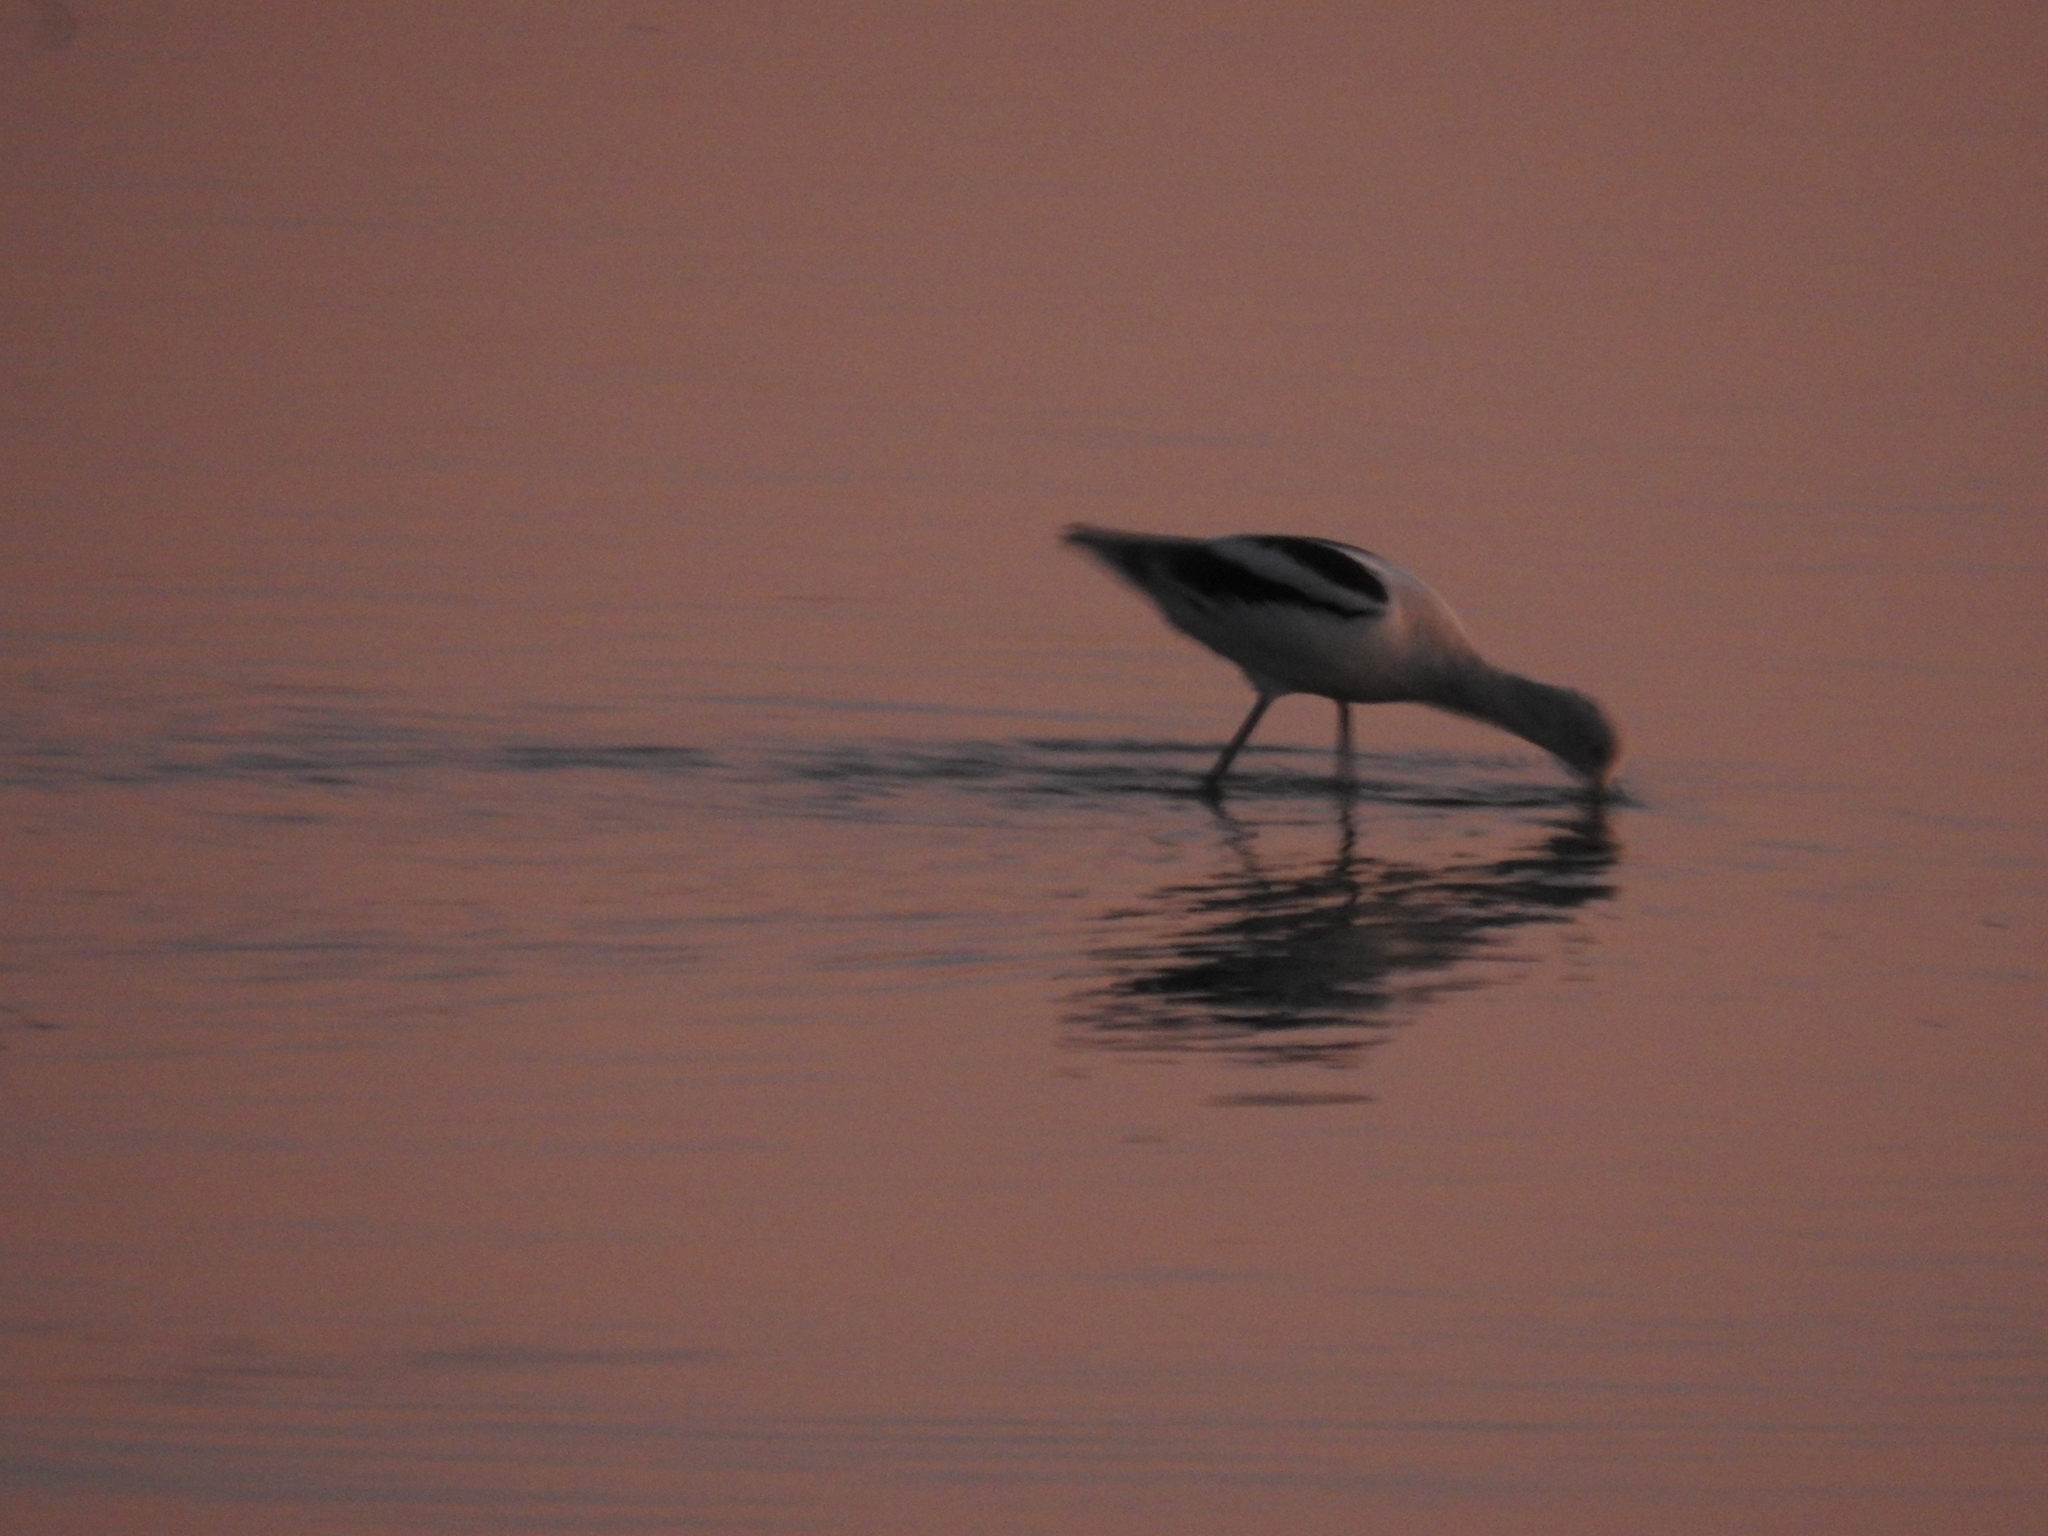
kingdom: Animalia
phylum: Chordata
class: Aves
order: Charadriiformes
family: Recurvirostridae
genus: Recurvirostra
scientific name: Recurvirostra americana
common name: American avocet
